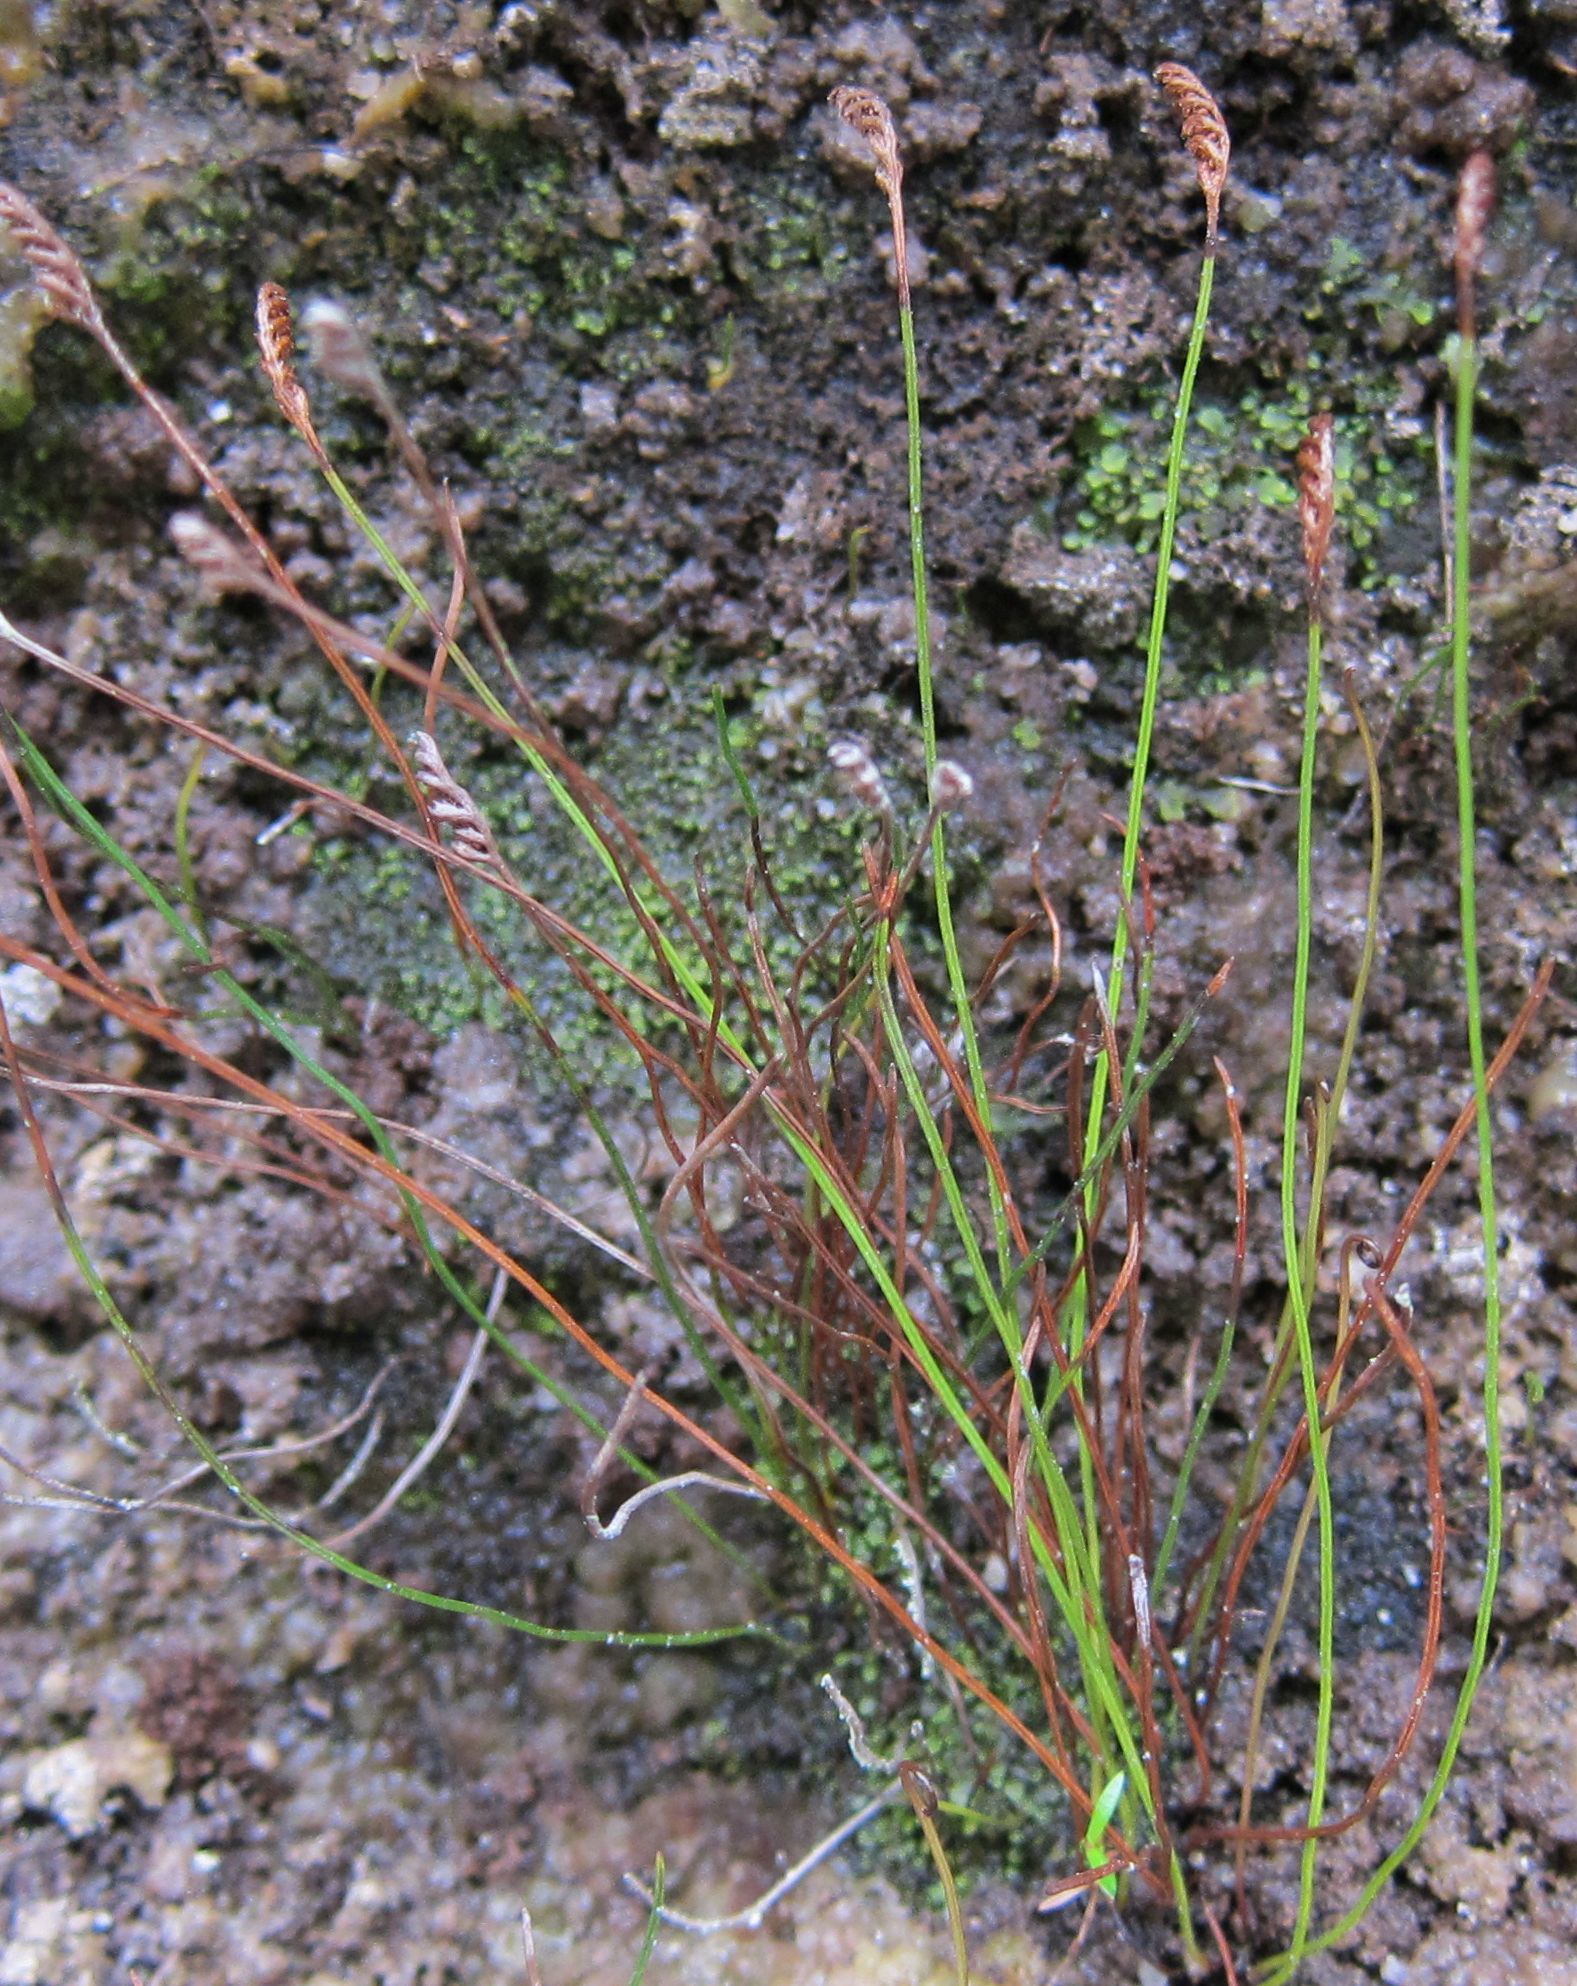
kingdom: Plantae
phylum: Tracheophyta
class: Polypodiopsida
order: Schizaeales
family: Schizaeaceae
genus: Microschizaea
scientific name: Microschizaea australis
